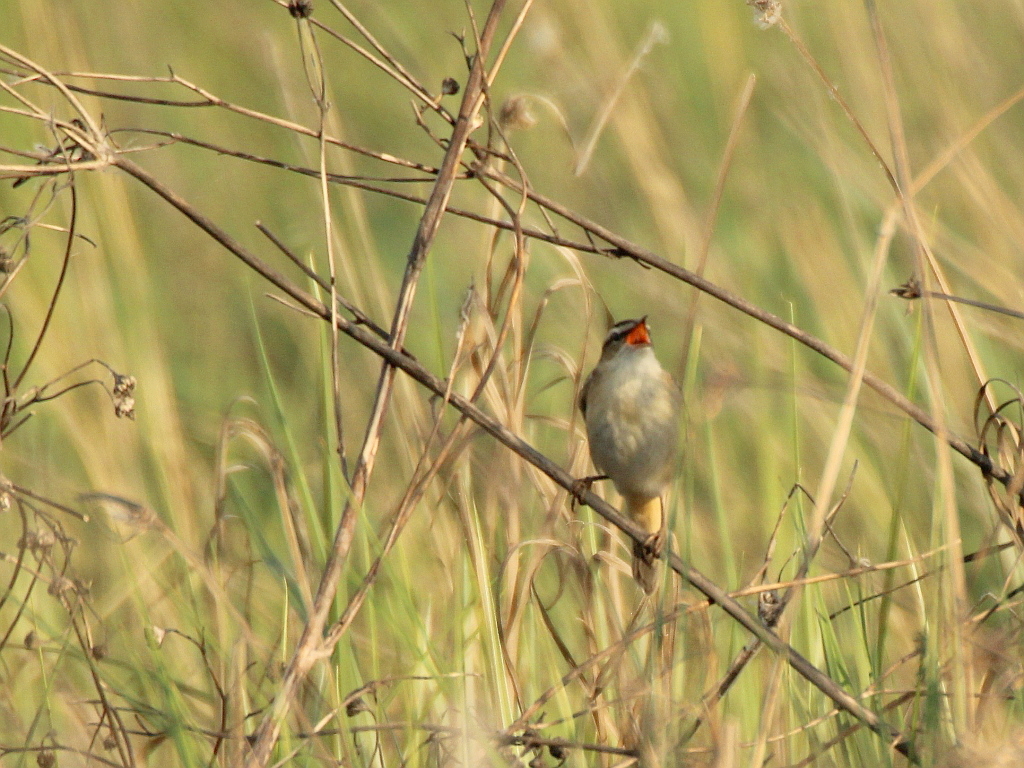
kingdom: Animalia
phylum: Chordata
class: Aves
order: Passeriformes
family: Acrocephalidae
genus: Acrocephalus
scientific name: Acrocephalus schoenobaenus
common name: Sedge warbler
